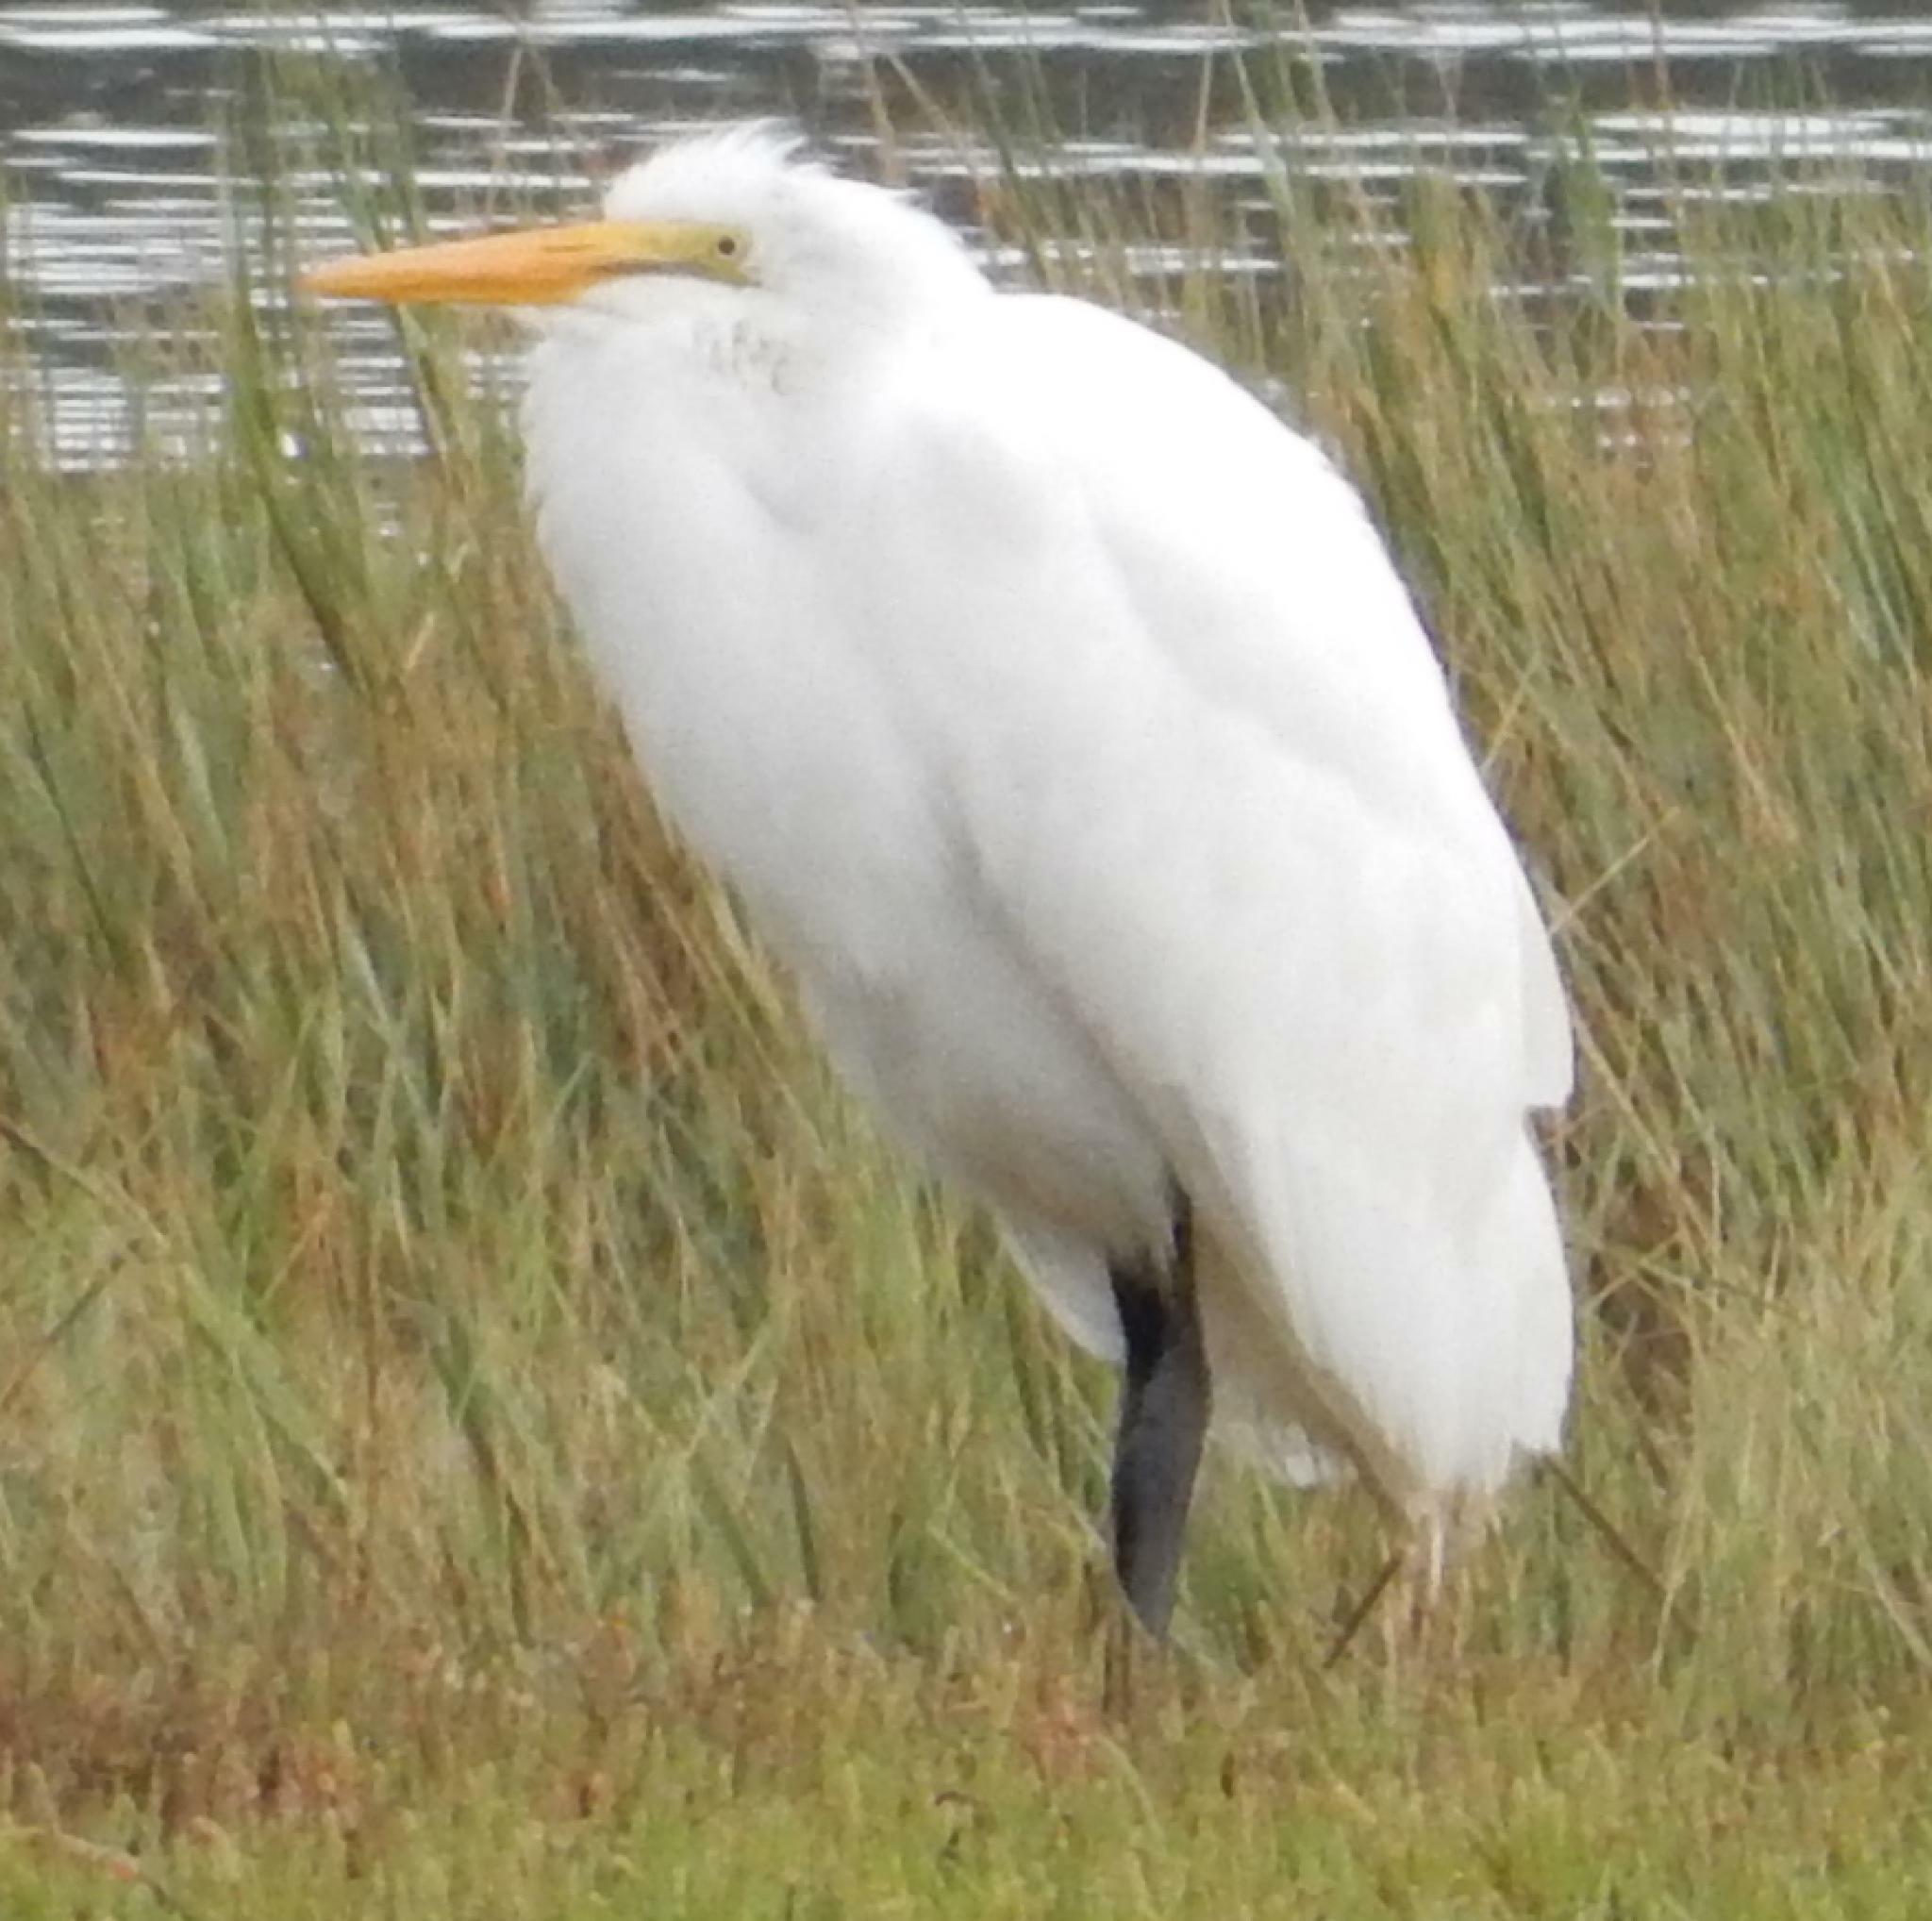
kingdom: Animalia
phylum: Chordata
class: Aves
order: Pelecaniformes
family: Ardeidae
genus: Ardea
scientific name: Ardea alba
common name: Great egret
